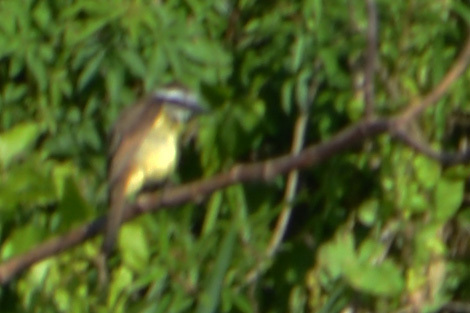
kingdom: Animalia
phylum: Chordata
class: Aves
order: Passeriformes
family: Tyrannidae
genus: Pitangus
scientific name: Pitangus sulphuratus
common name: Great kiskadee
